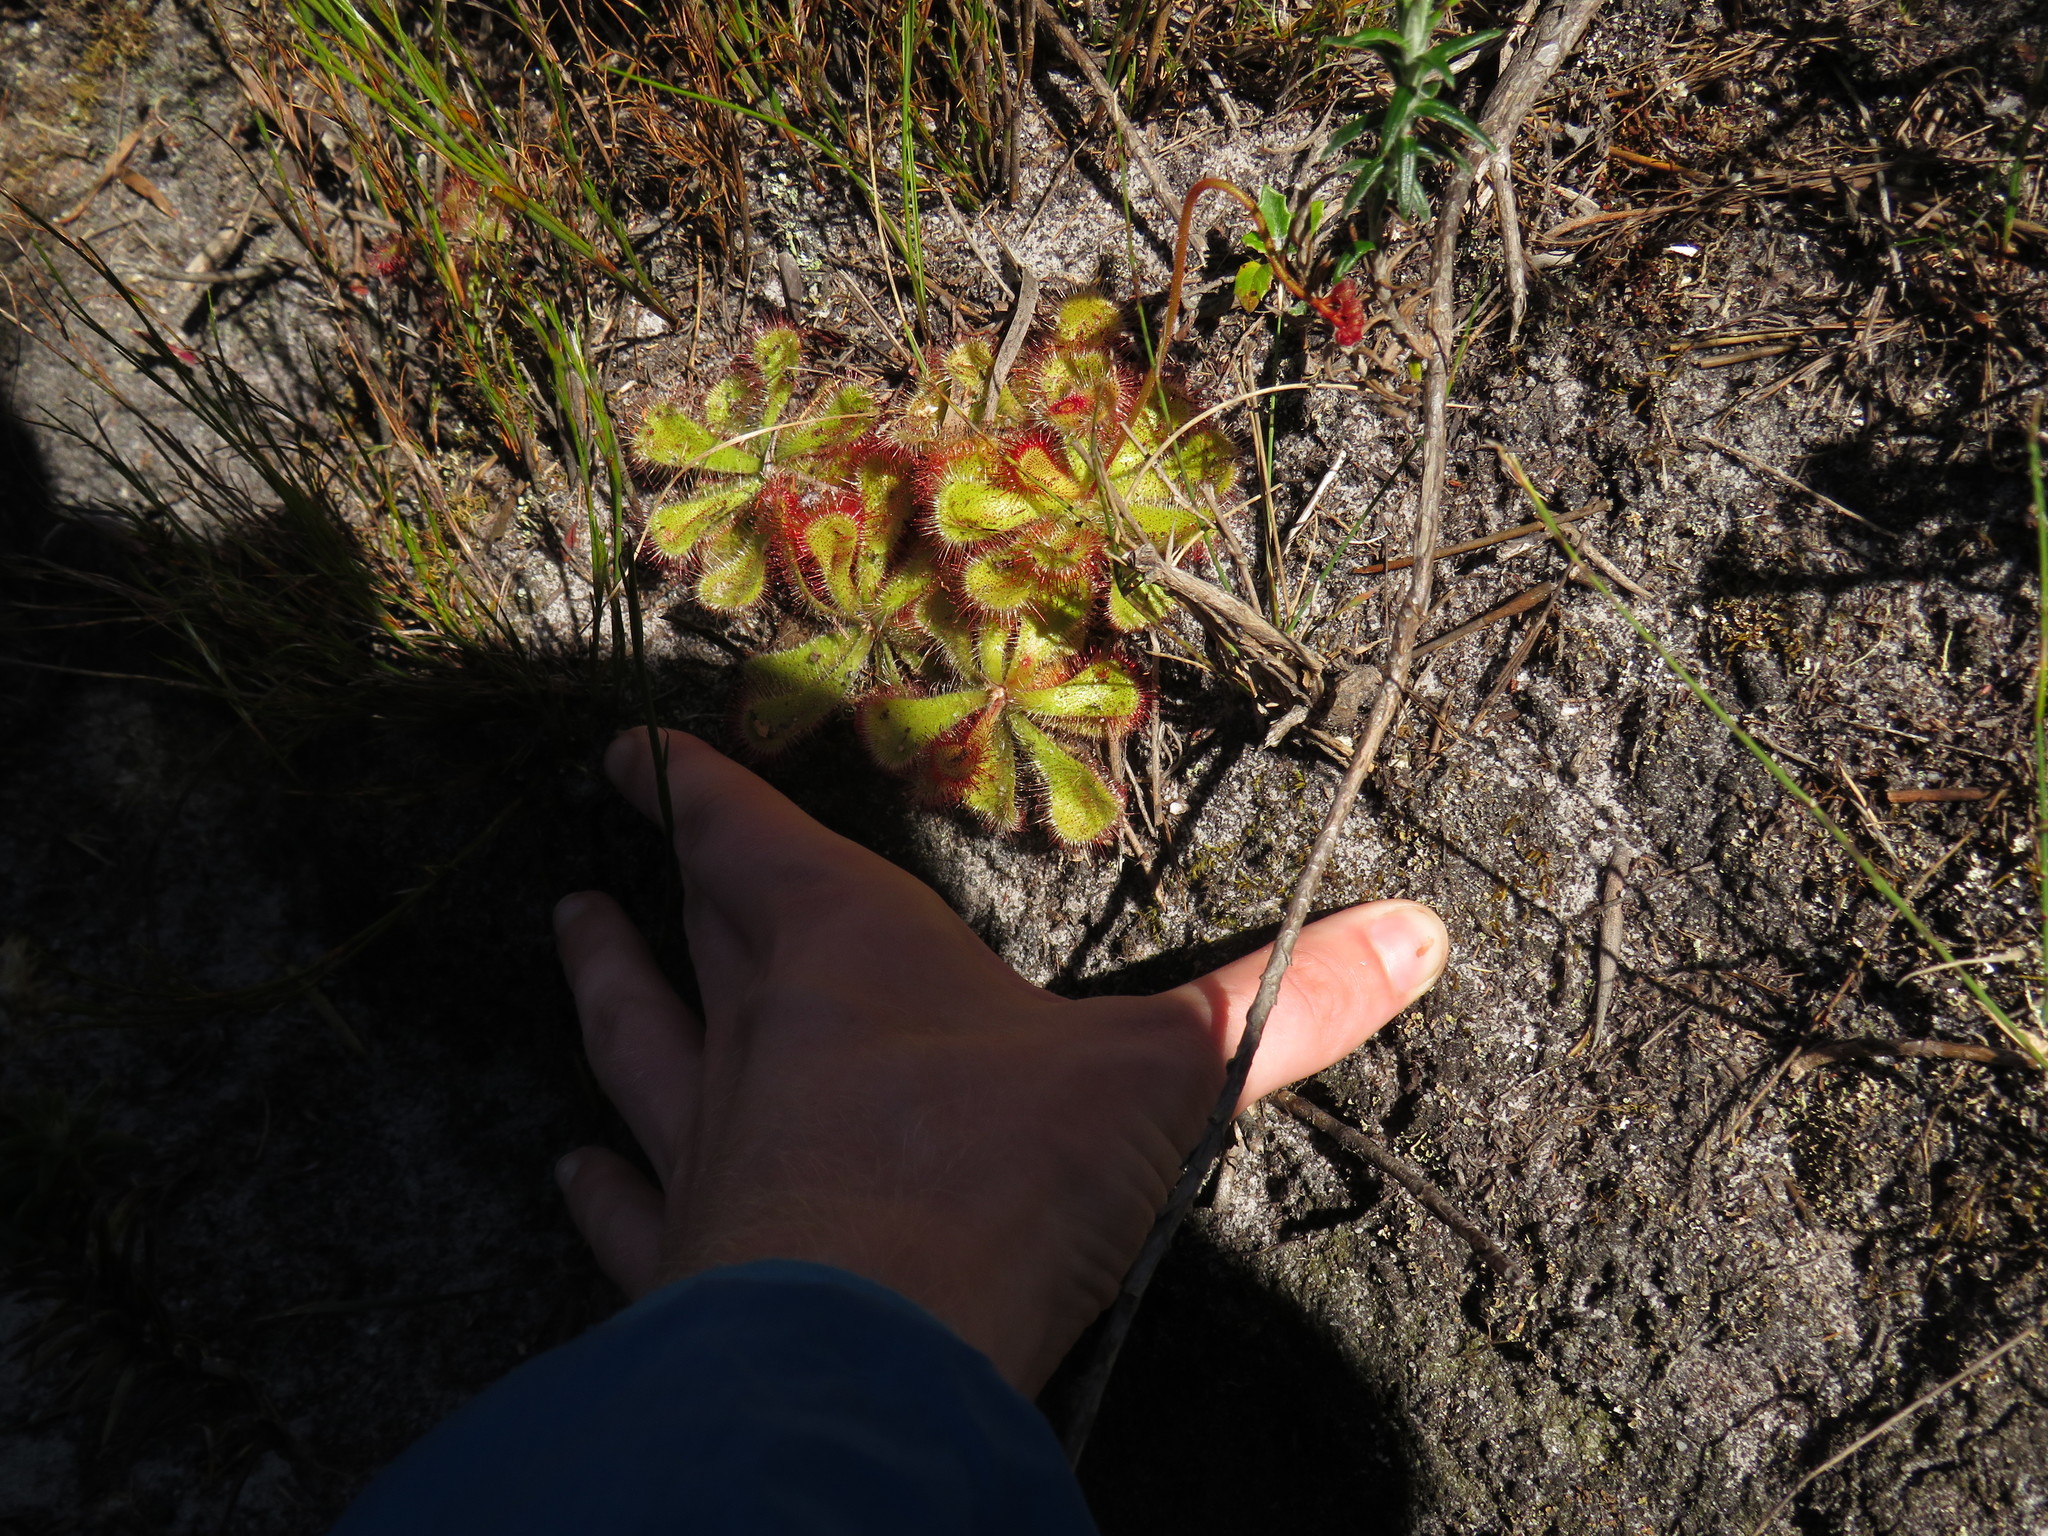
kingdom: Plantae
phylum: Tracheophyta
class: Magnoliopsida
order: Caryophyllales
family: Droseraceae
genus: Drosera
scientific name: Drosera cuneifolia
